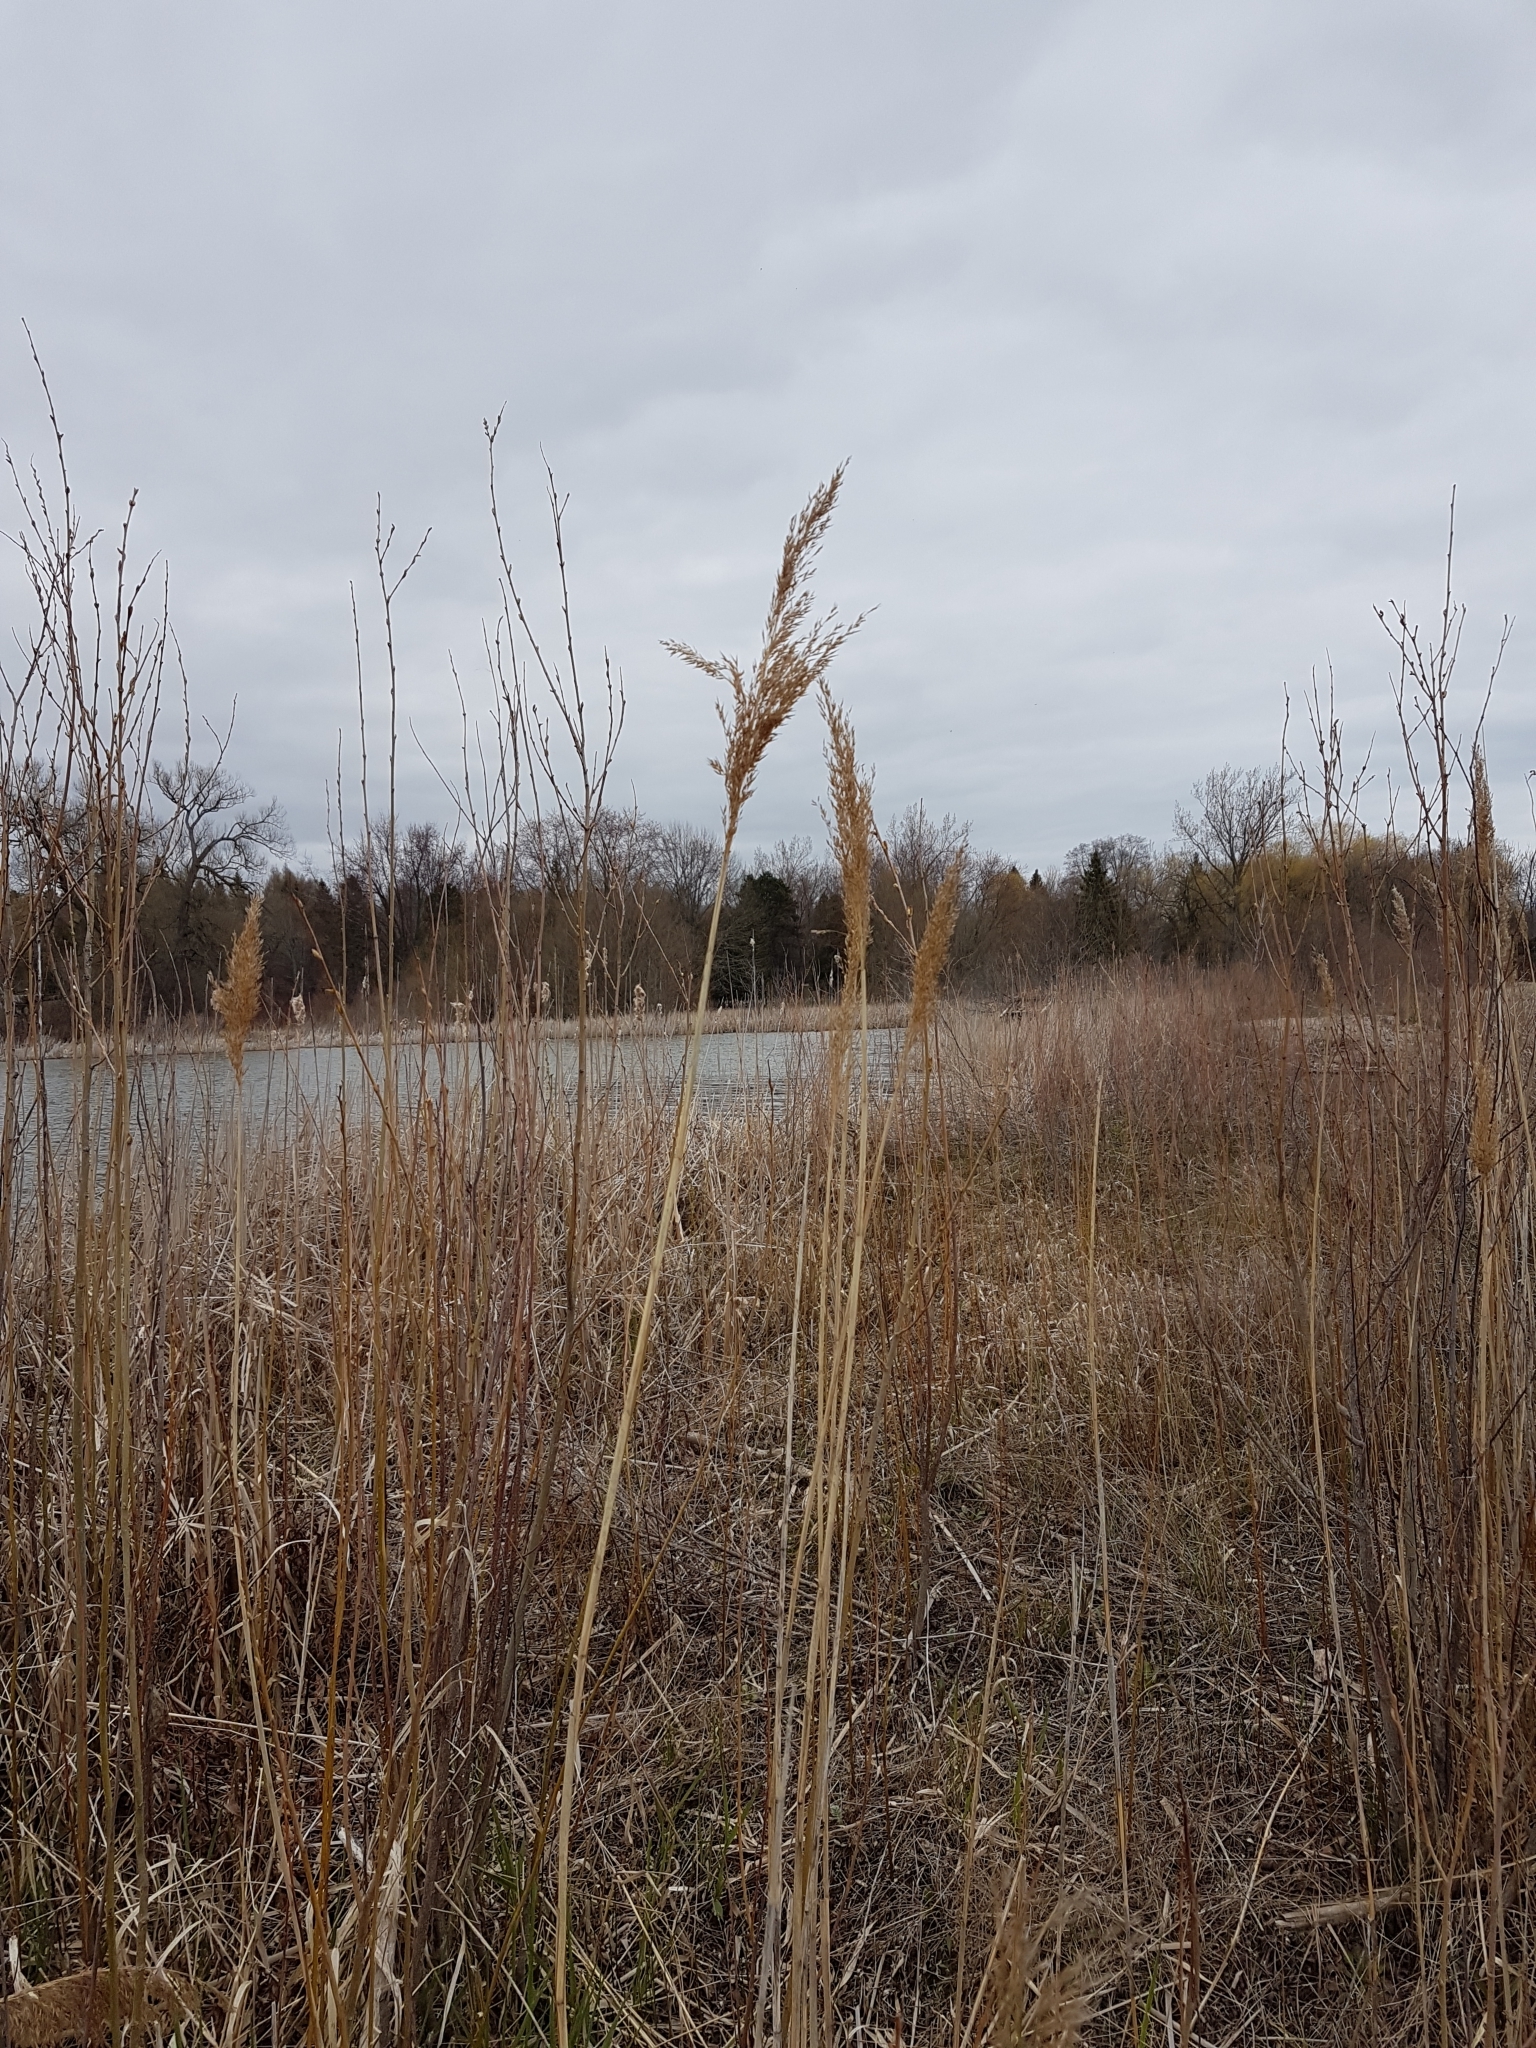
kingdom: Plantae
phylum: Tracheophyta
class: Liliopsida
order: Poales
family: Poaceae
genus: Phragmites
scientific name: Phragmites australis
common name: Common reed
